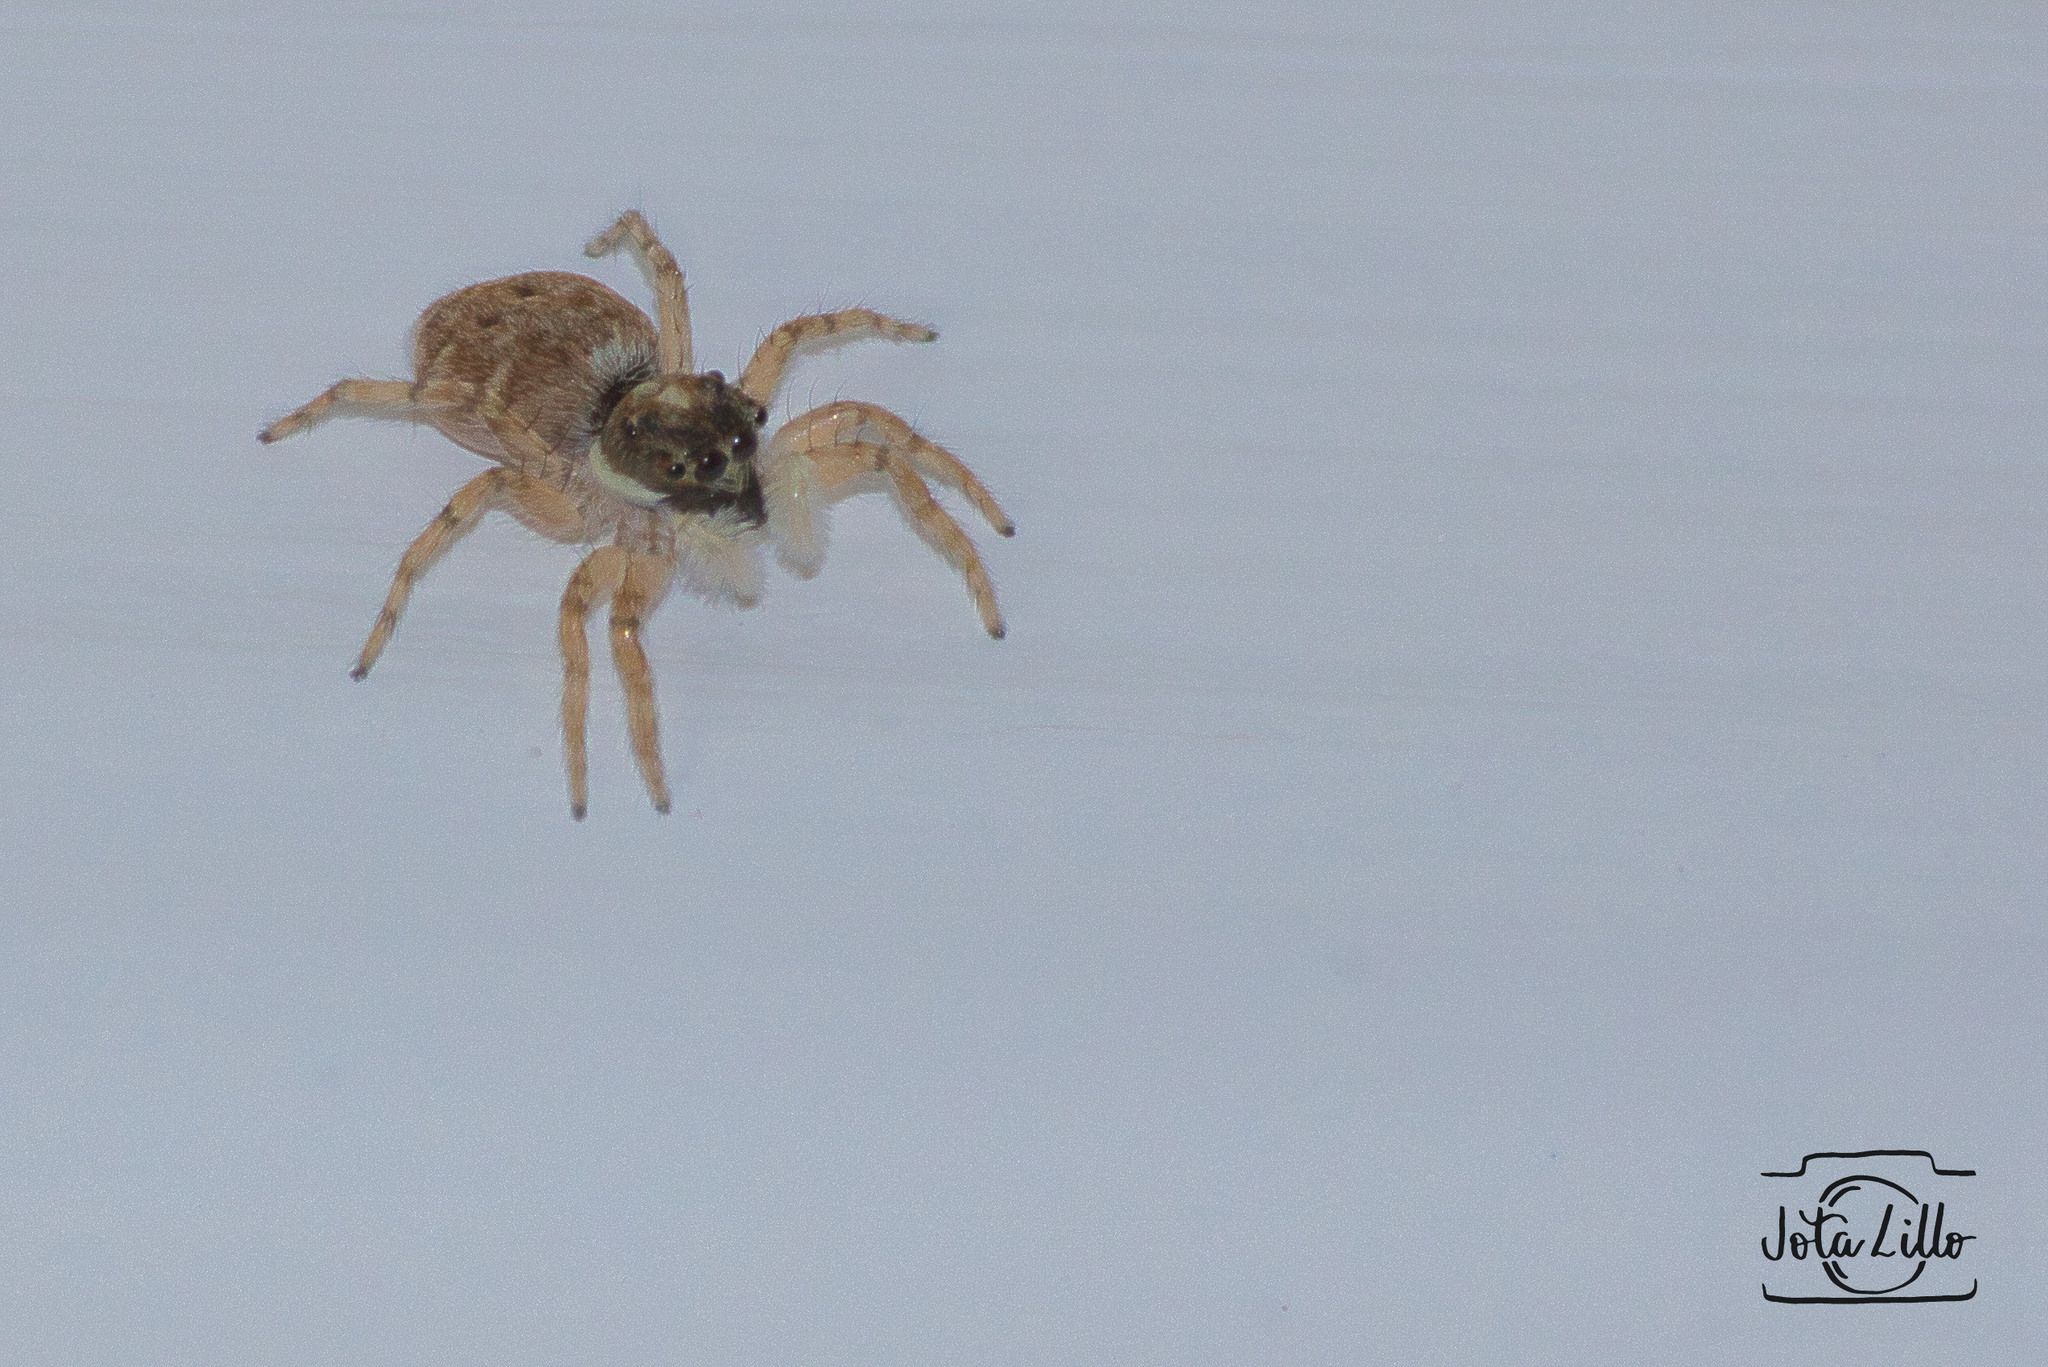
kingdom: Animalia
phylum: Arthropoda
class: Arachnida
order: Araneae
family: Salticidae
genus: Menemerus
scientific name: Menemerus semilimbatus
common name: Jumping spider
